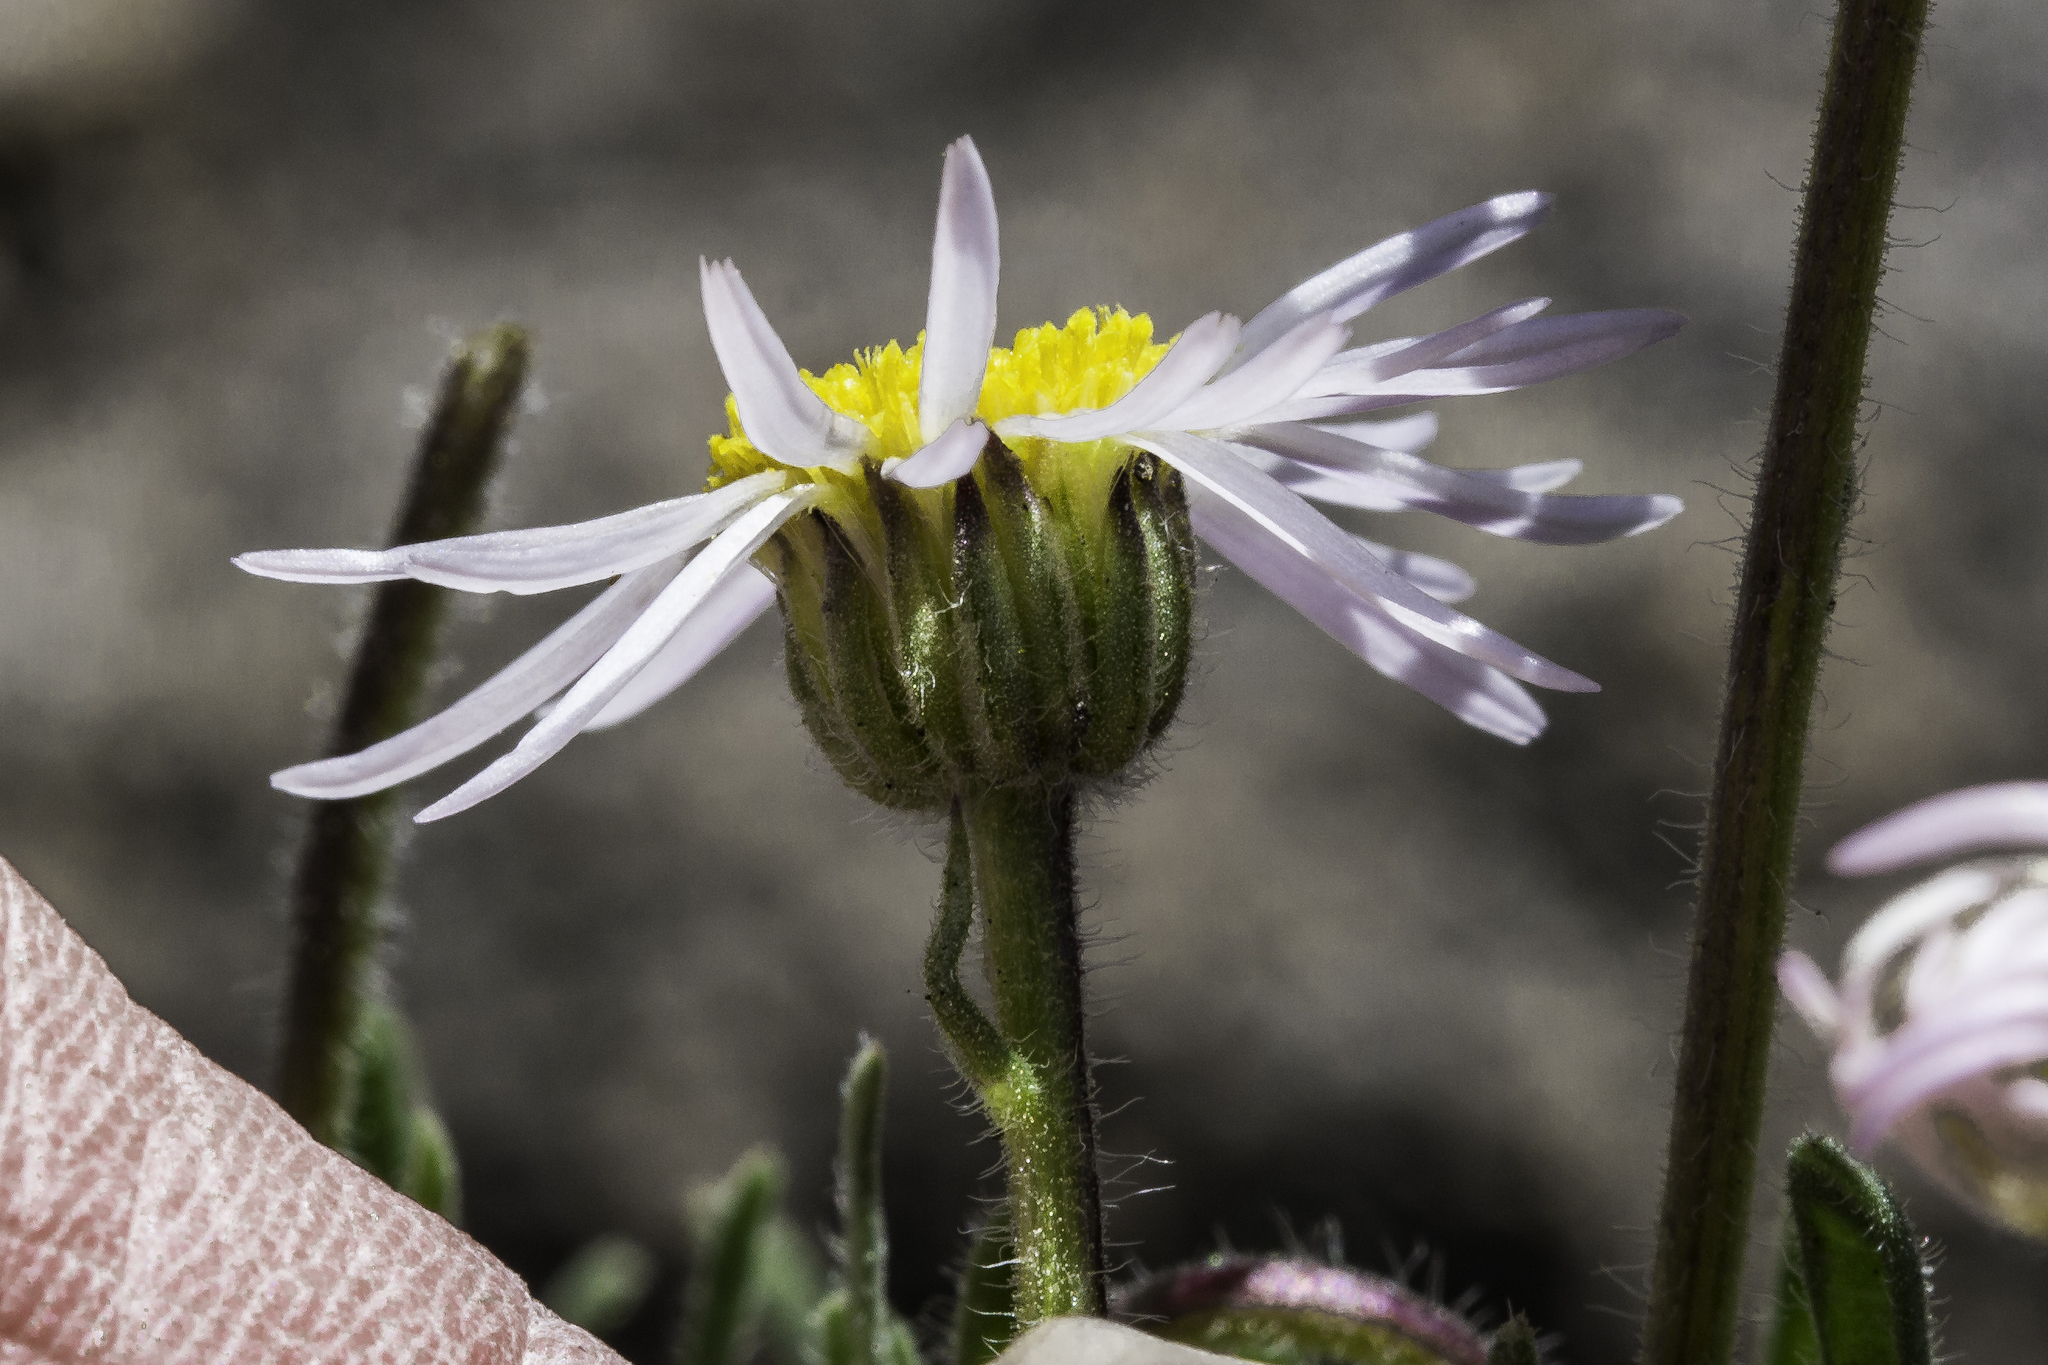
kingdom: Plantae
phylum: Tracheophyta
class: Magnoliopsida
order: Asterales
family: Asteraceae
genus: Erigeron
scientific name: Erigeron vetensis
